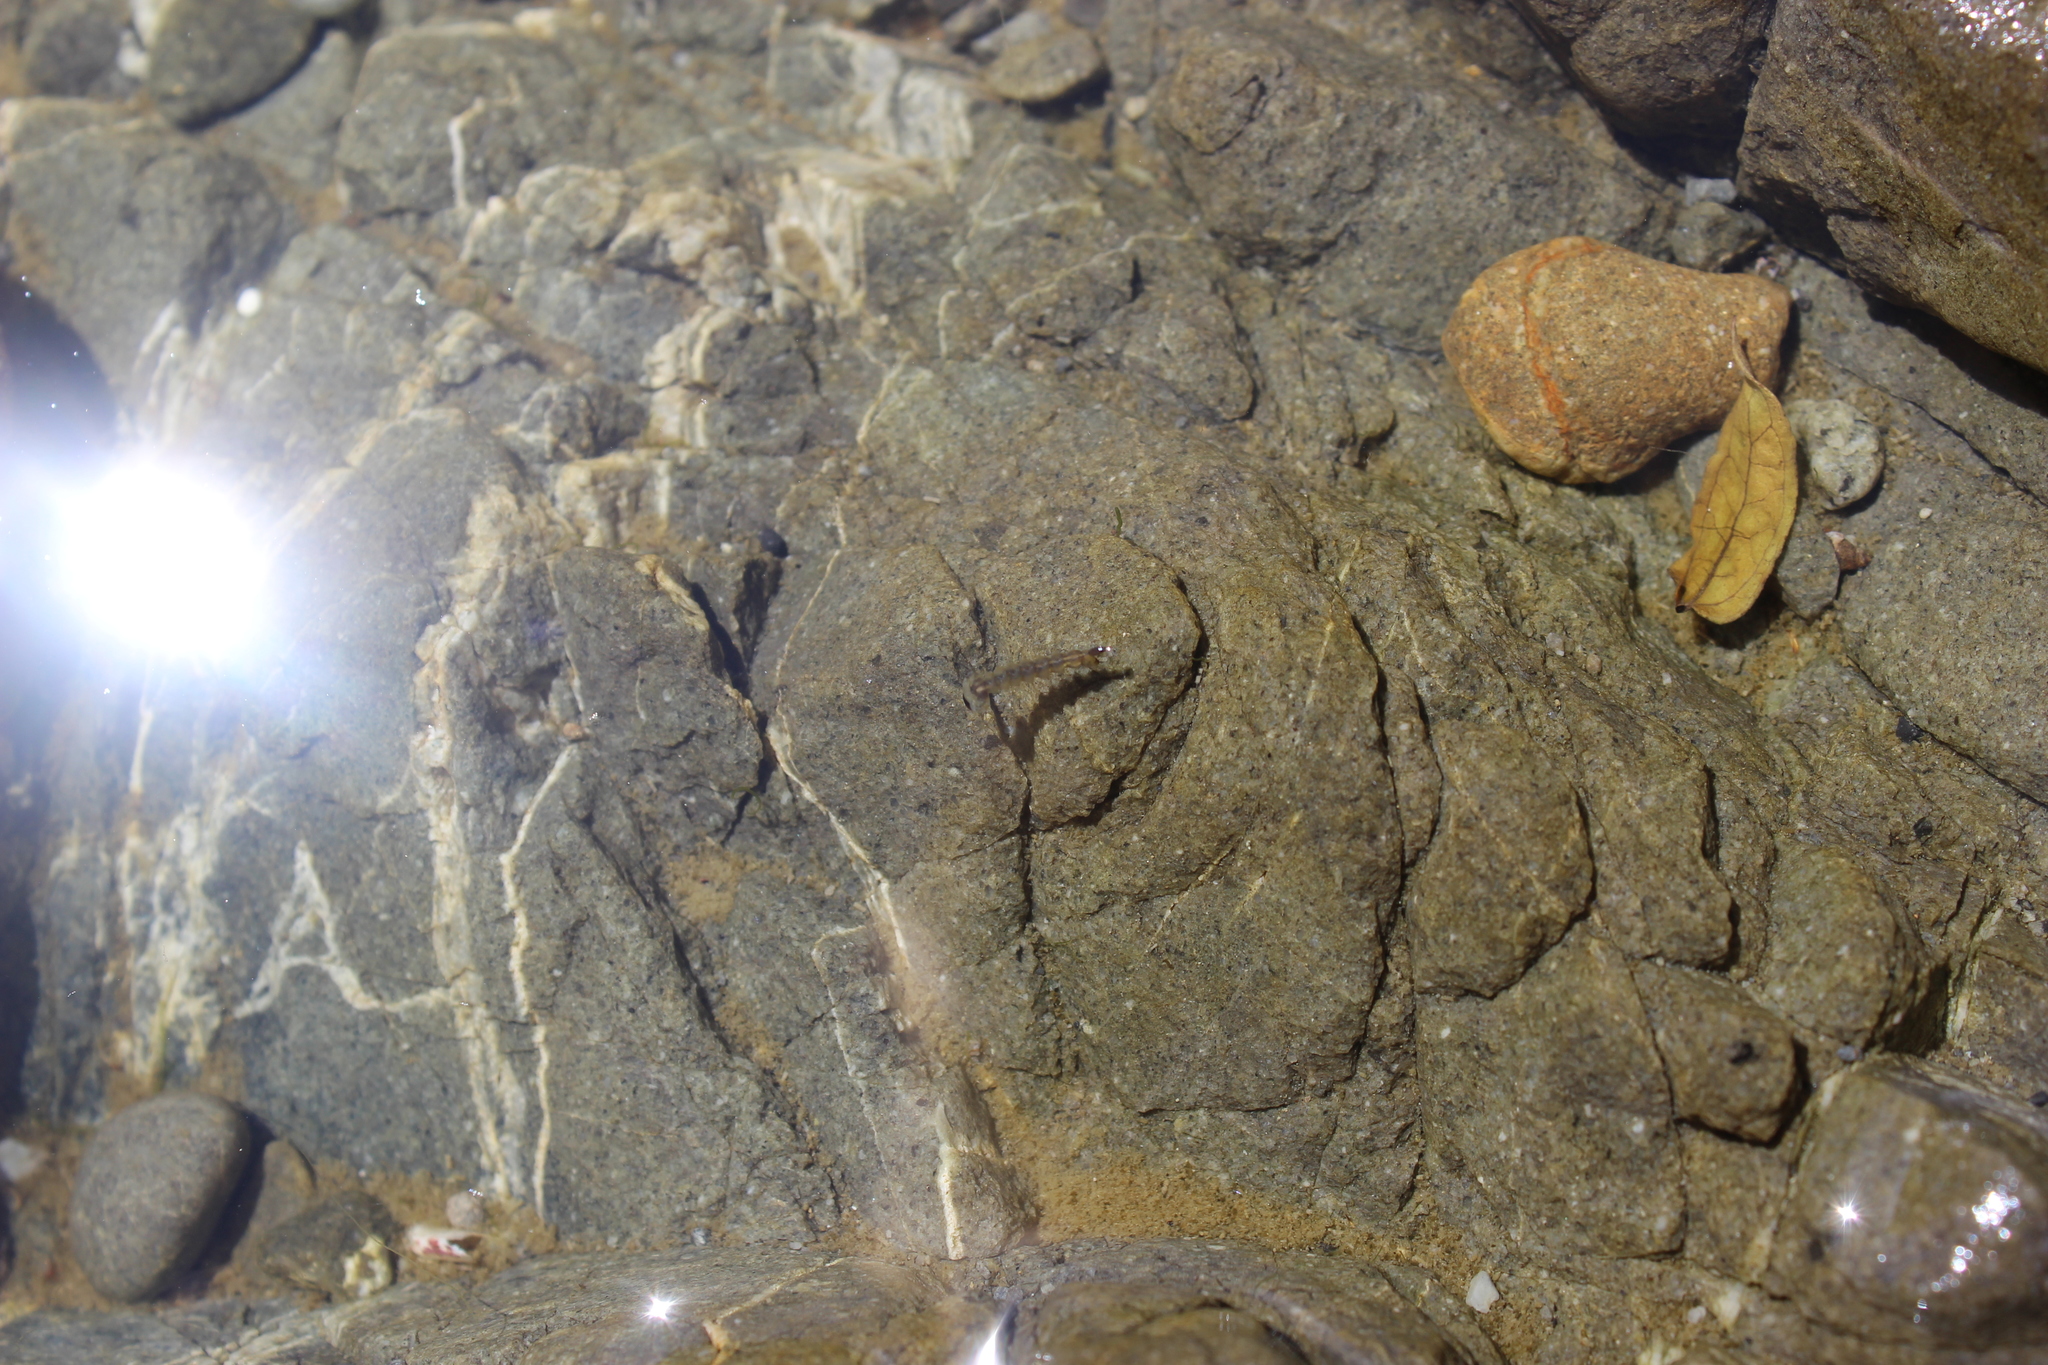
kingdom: Animalia
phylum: Arthropoda
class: Insecta
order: Diptera
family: Culicidae
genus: Opifex
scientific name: Opifex fuscus
